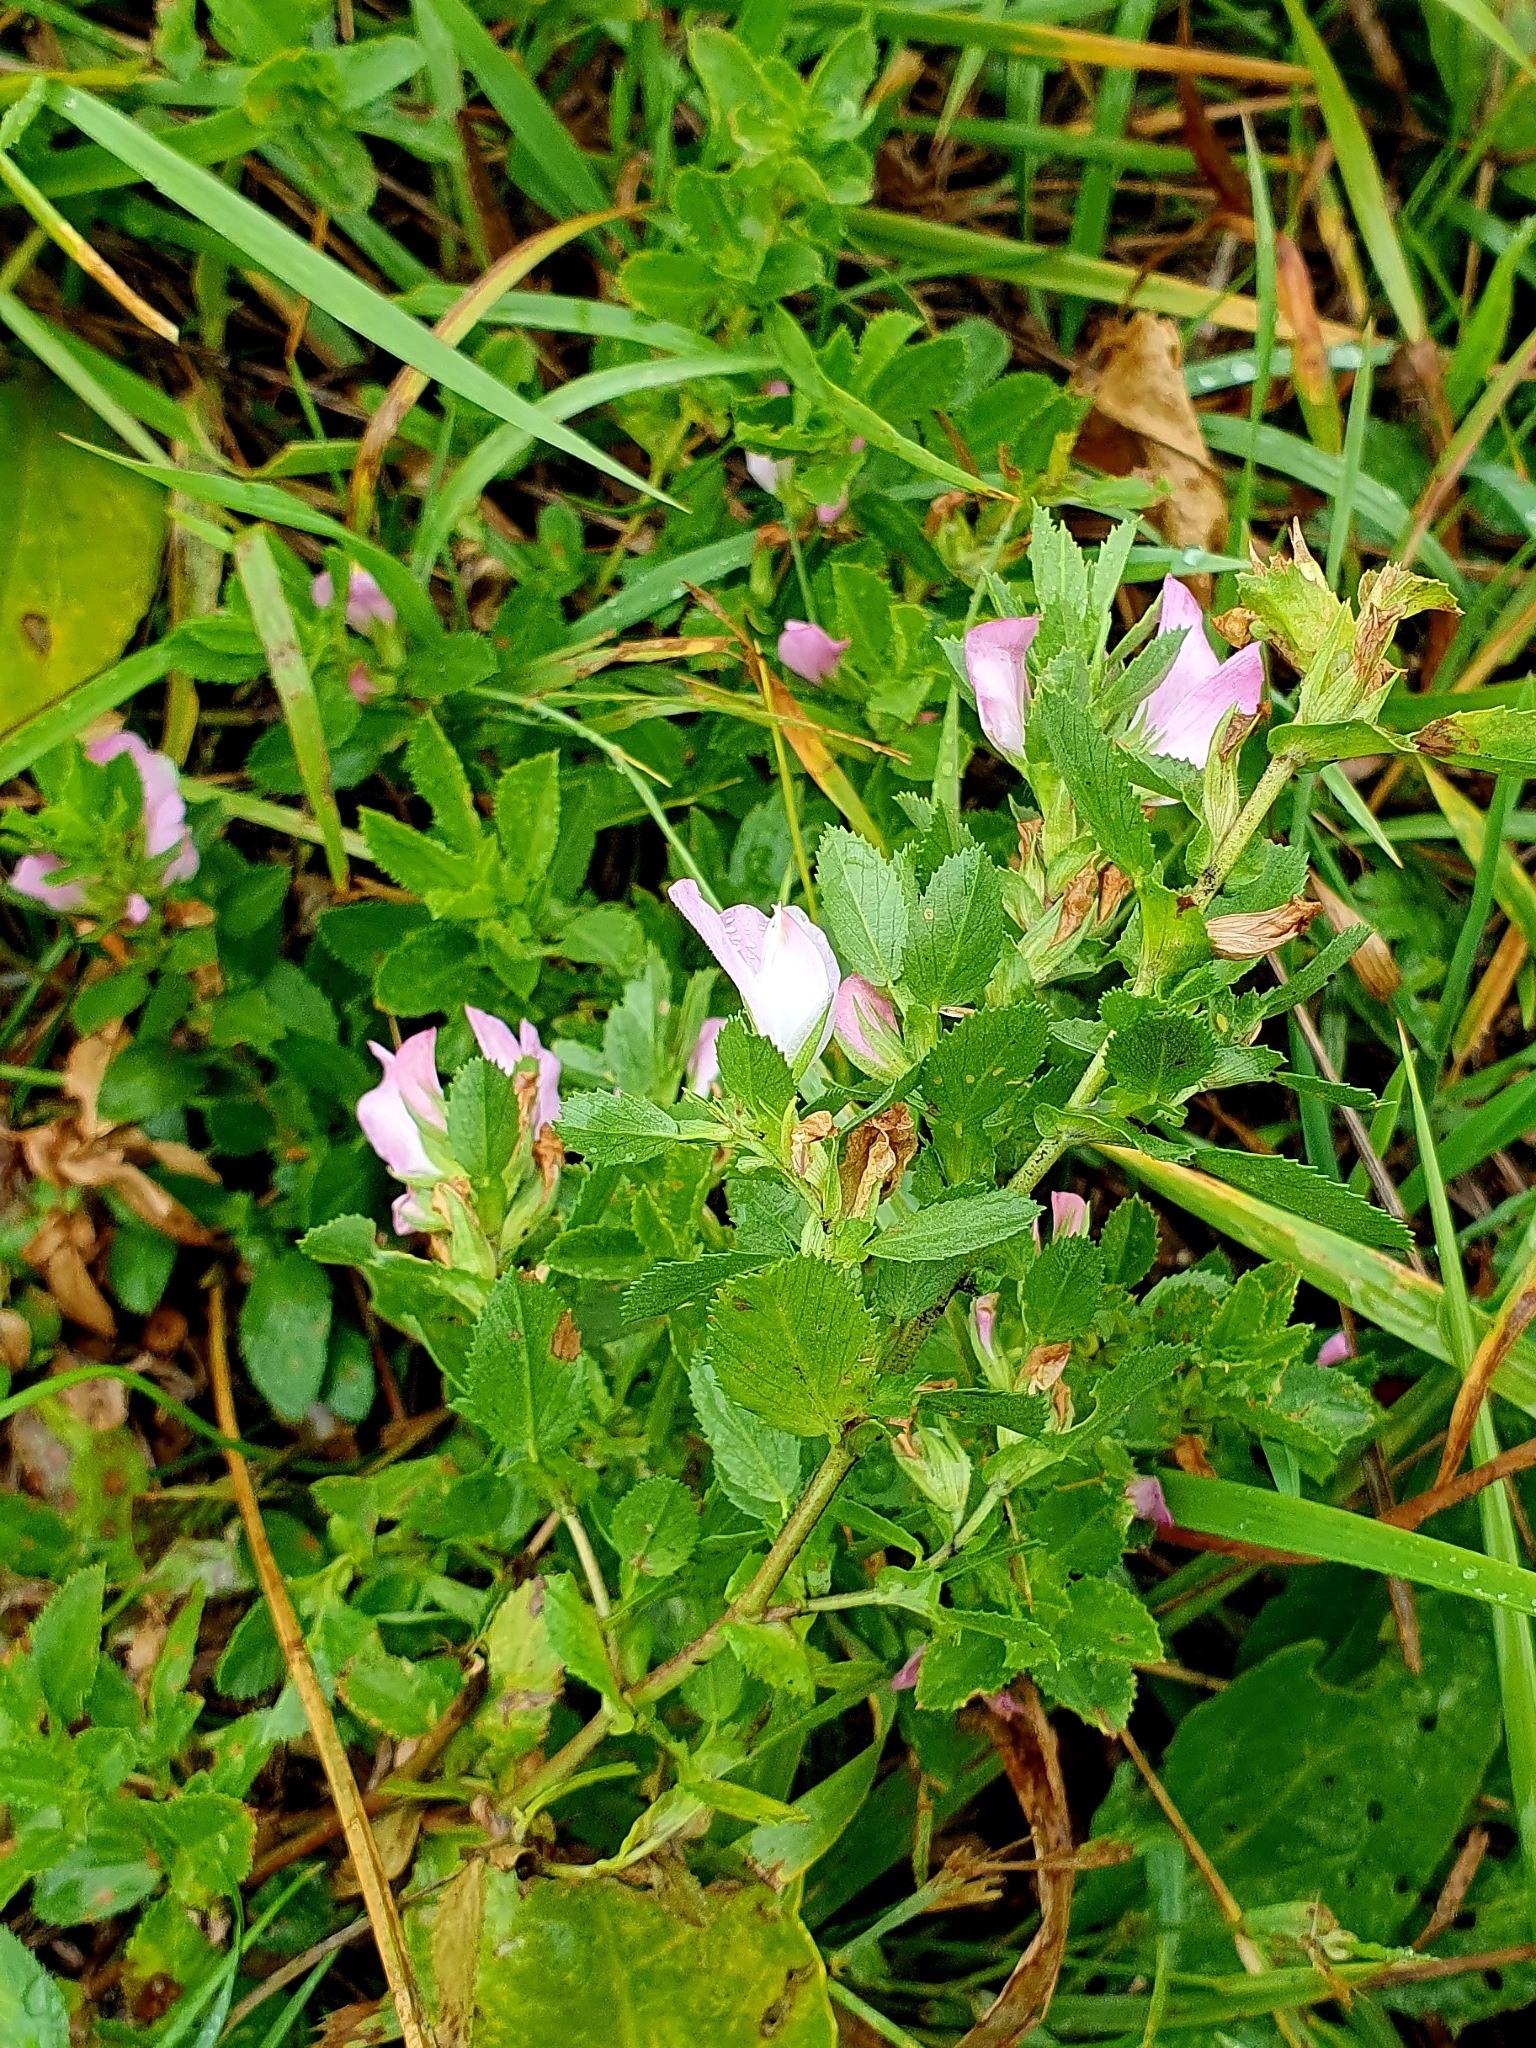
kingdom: Plantae
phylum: Tracheophyta
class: Magnoliopsida
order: Fabales
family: Fabaceae
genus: Ononis
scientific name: Ononis arvensis
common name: Field restharrow
